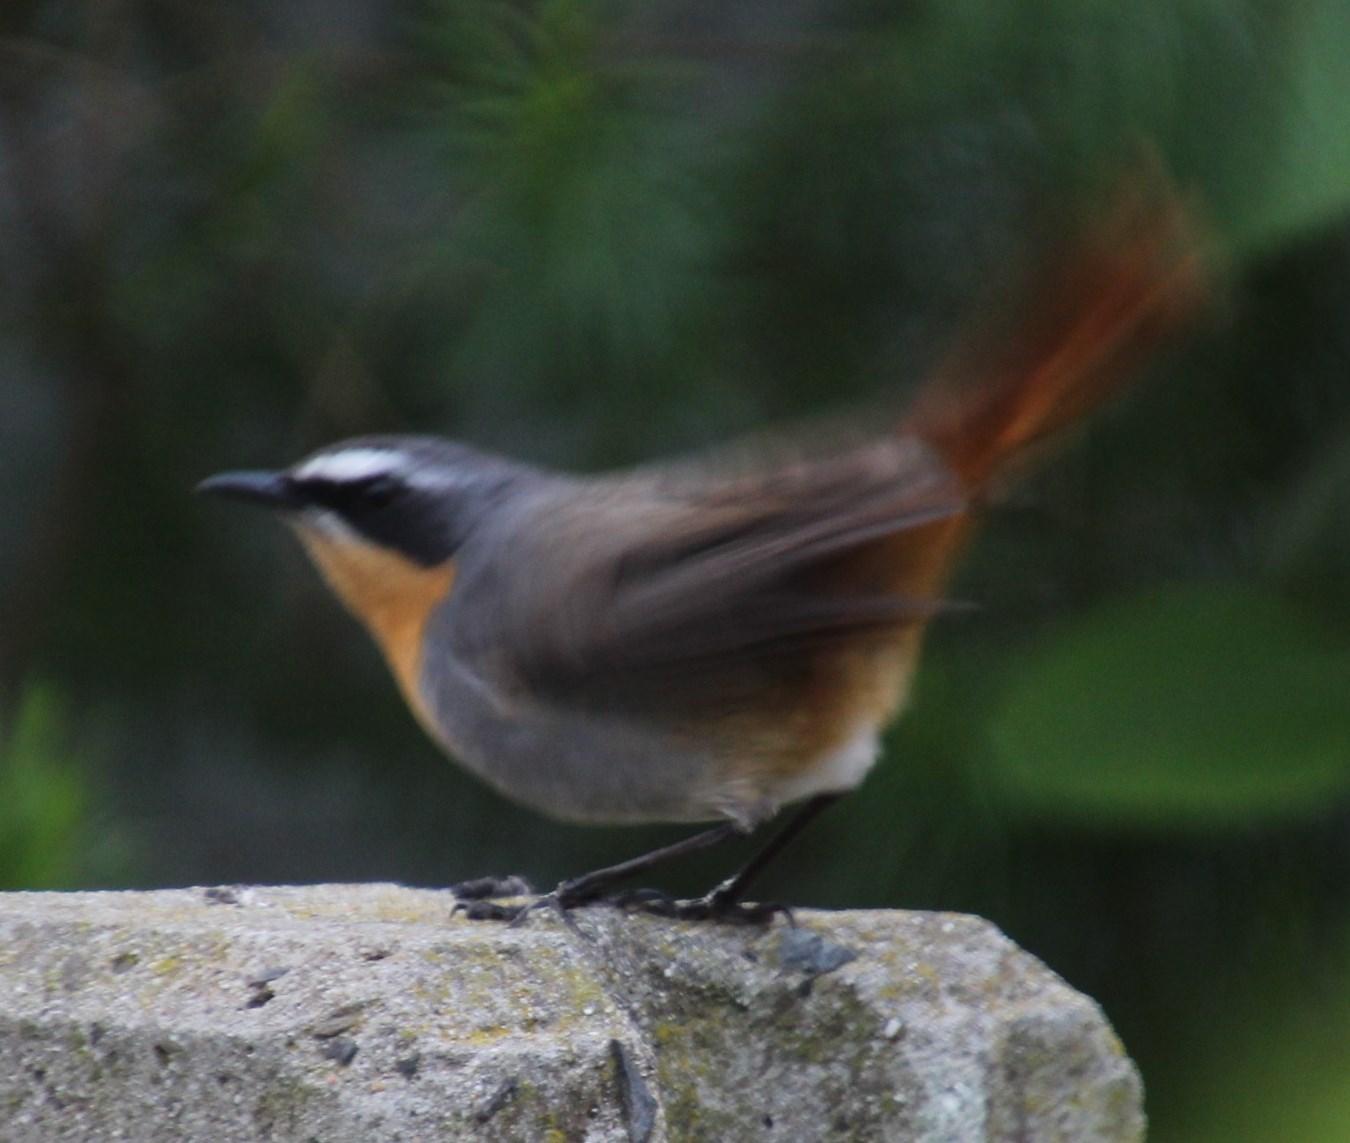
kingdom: Animalia
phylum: Chordata
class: Aves
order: Passeriformes
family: Muscicapidae
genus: Cossypha
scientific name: Cossypha caffra
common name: Cape robin-chat
